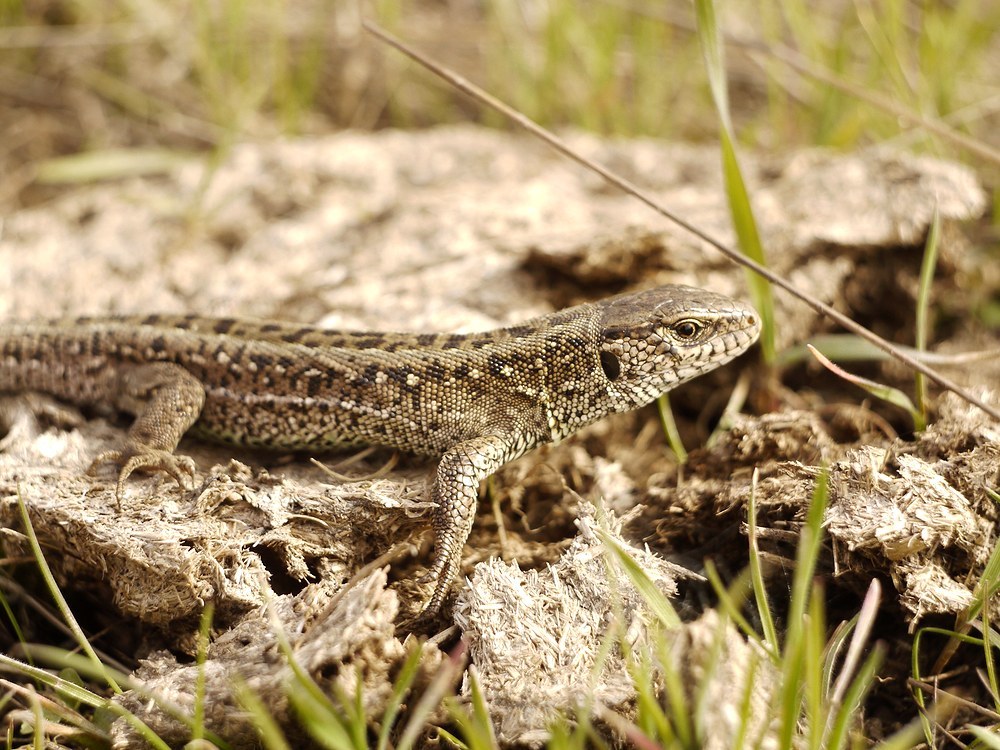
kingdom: Animalia
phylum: Chordata
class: Squamata
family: Lacertidae
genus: Lacerta
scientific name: Lacerta agilis
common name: Sand lizard
